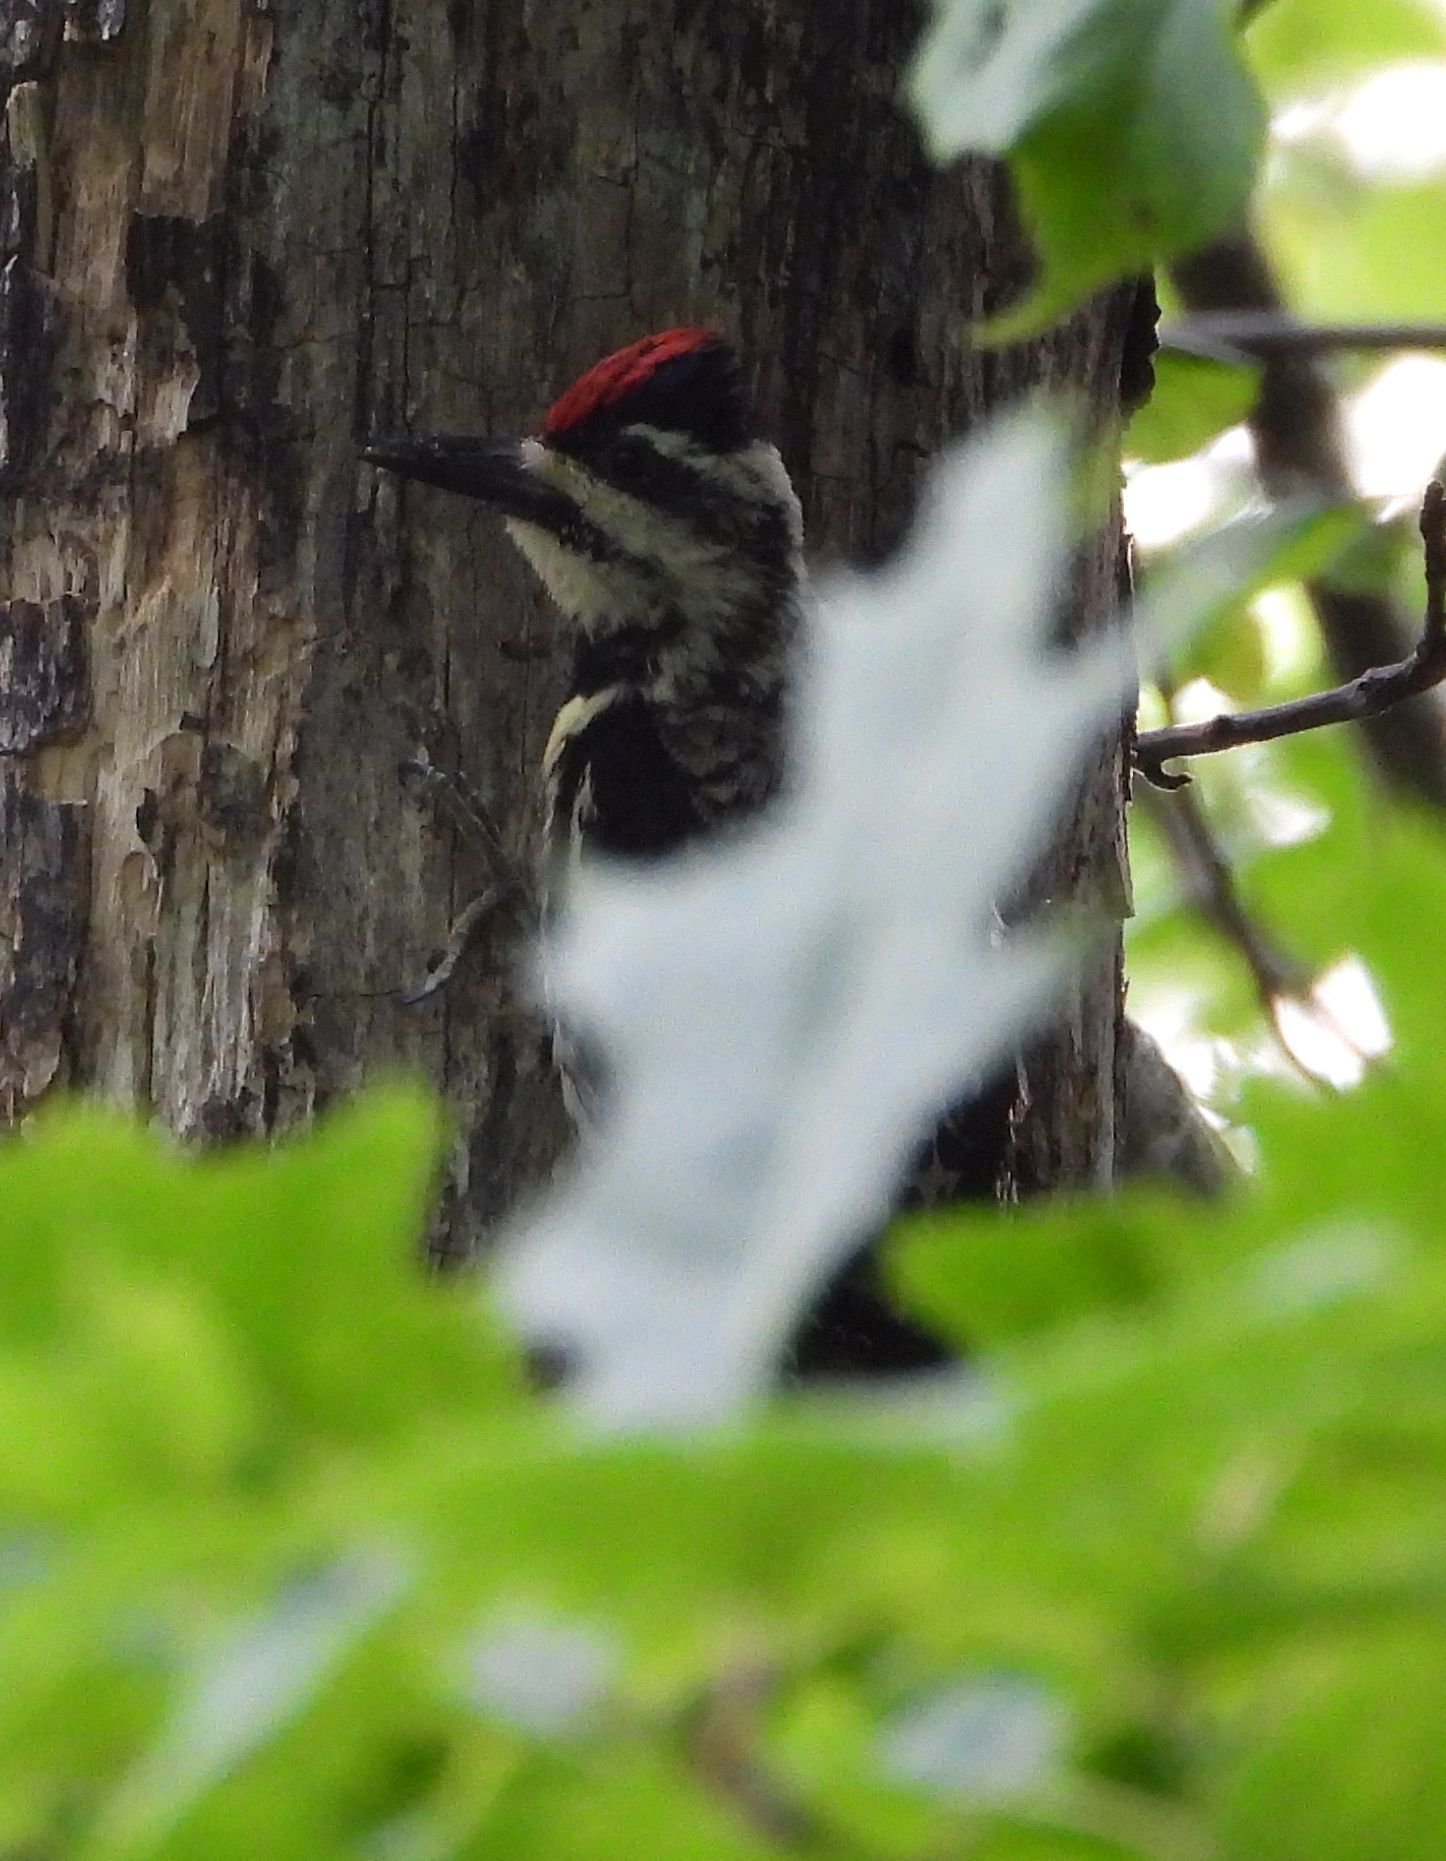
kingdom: Animalia
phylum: Chordata
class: Aves
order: Piciformes
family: Picidae
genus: Sphyrapicus
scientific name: Sphyrapicus varius
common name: Yellow-bellied sapsucker
